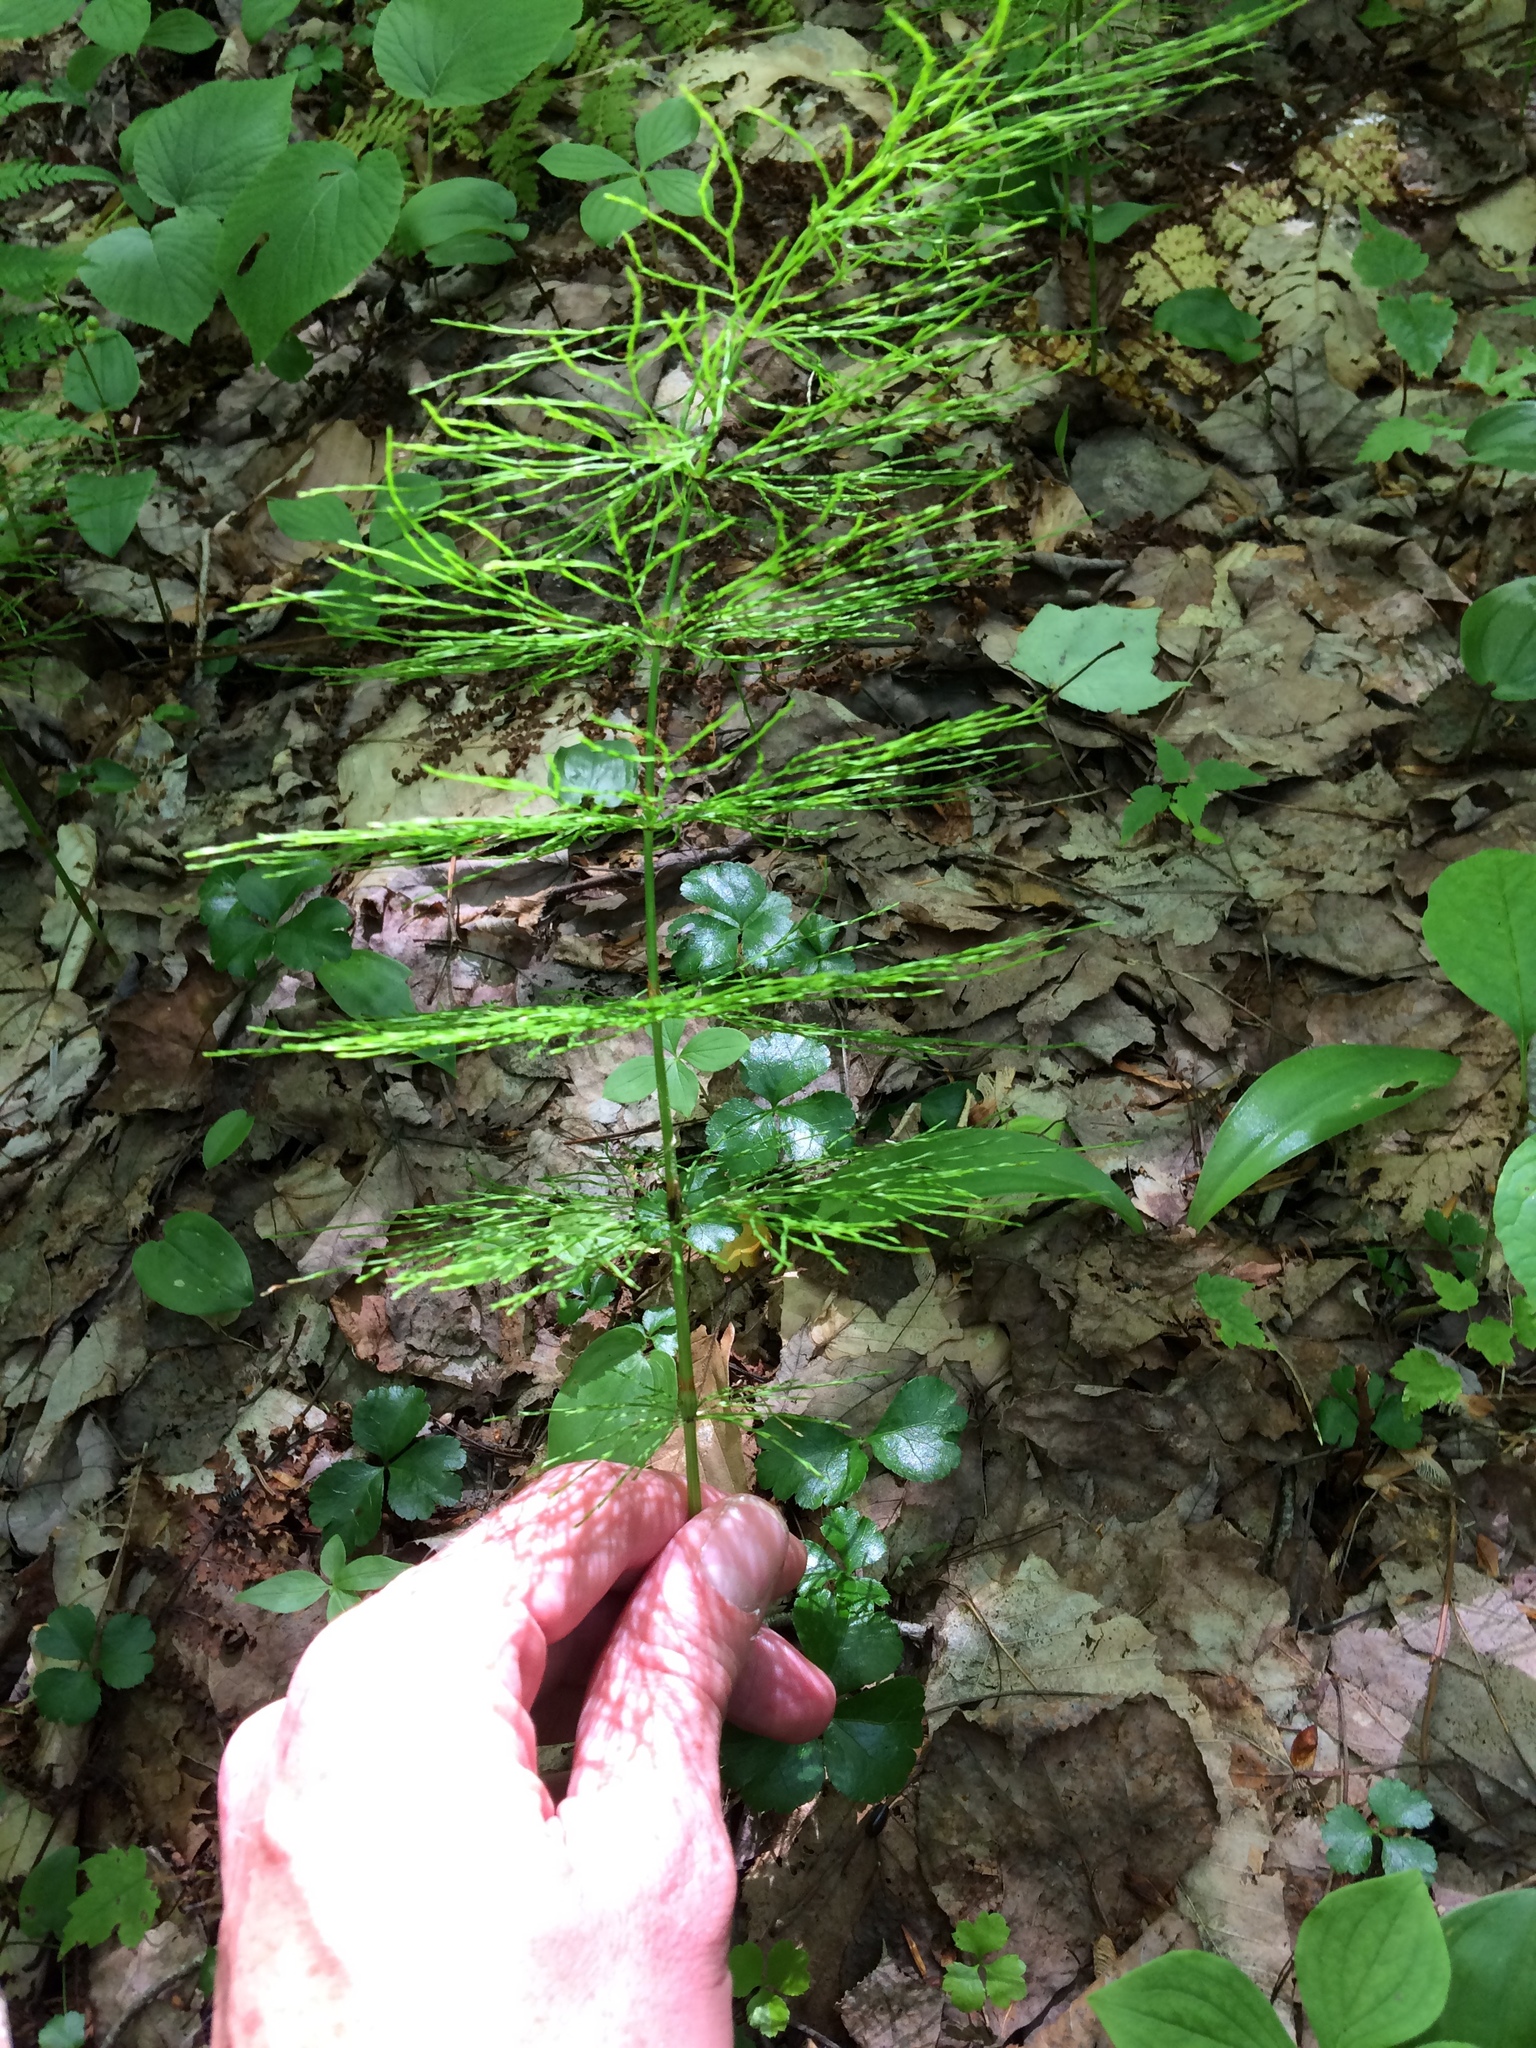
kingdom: Plantae
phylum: Tracheophyta
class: Polypodiopsida
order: Equisetales
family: Equisetaceae
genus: Equisetum
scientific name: Equisetum sylvaticum
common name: Wood horsetail
